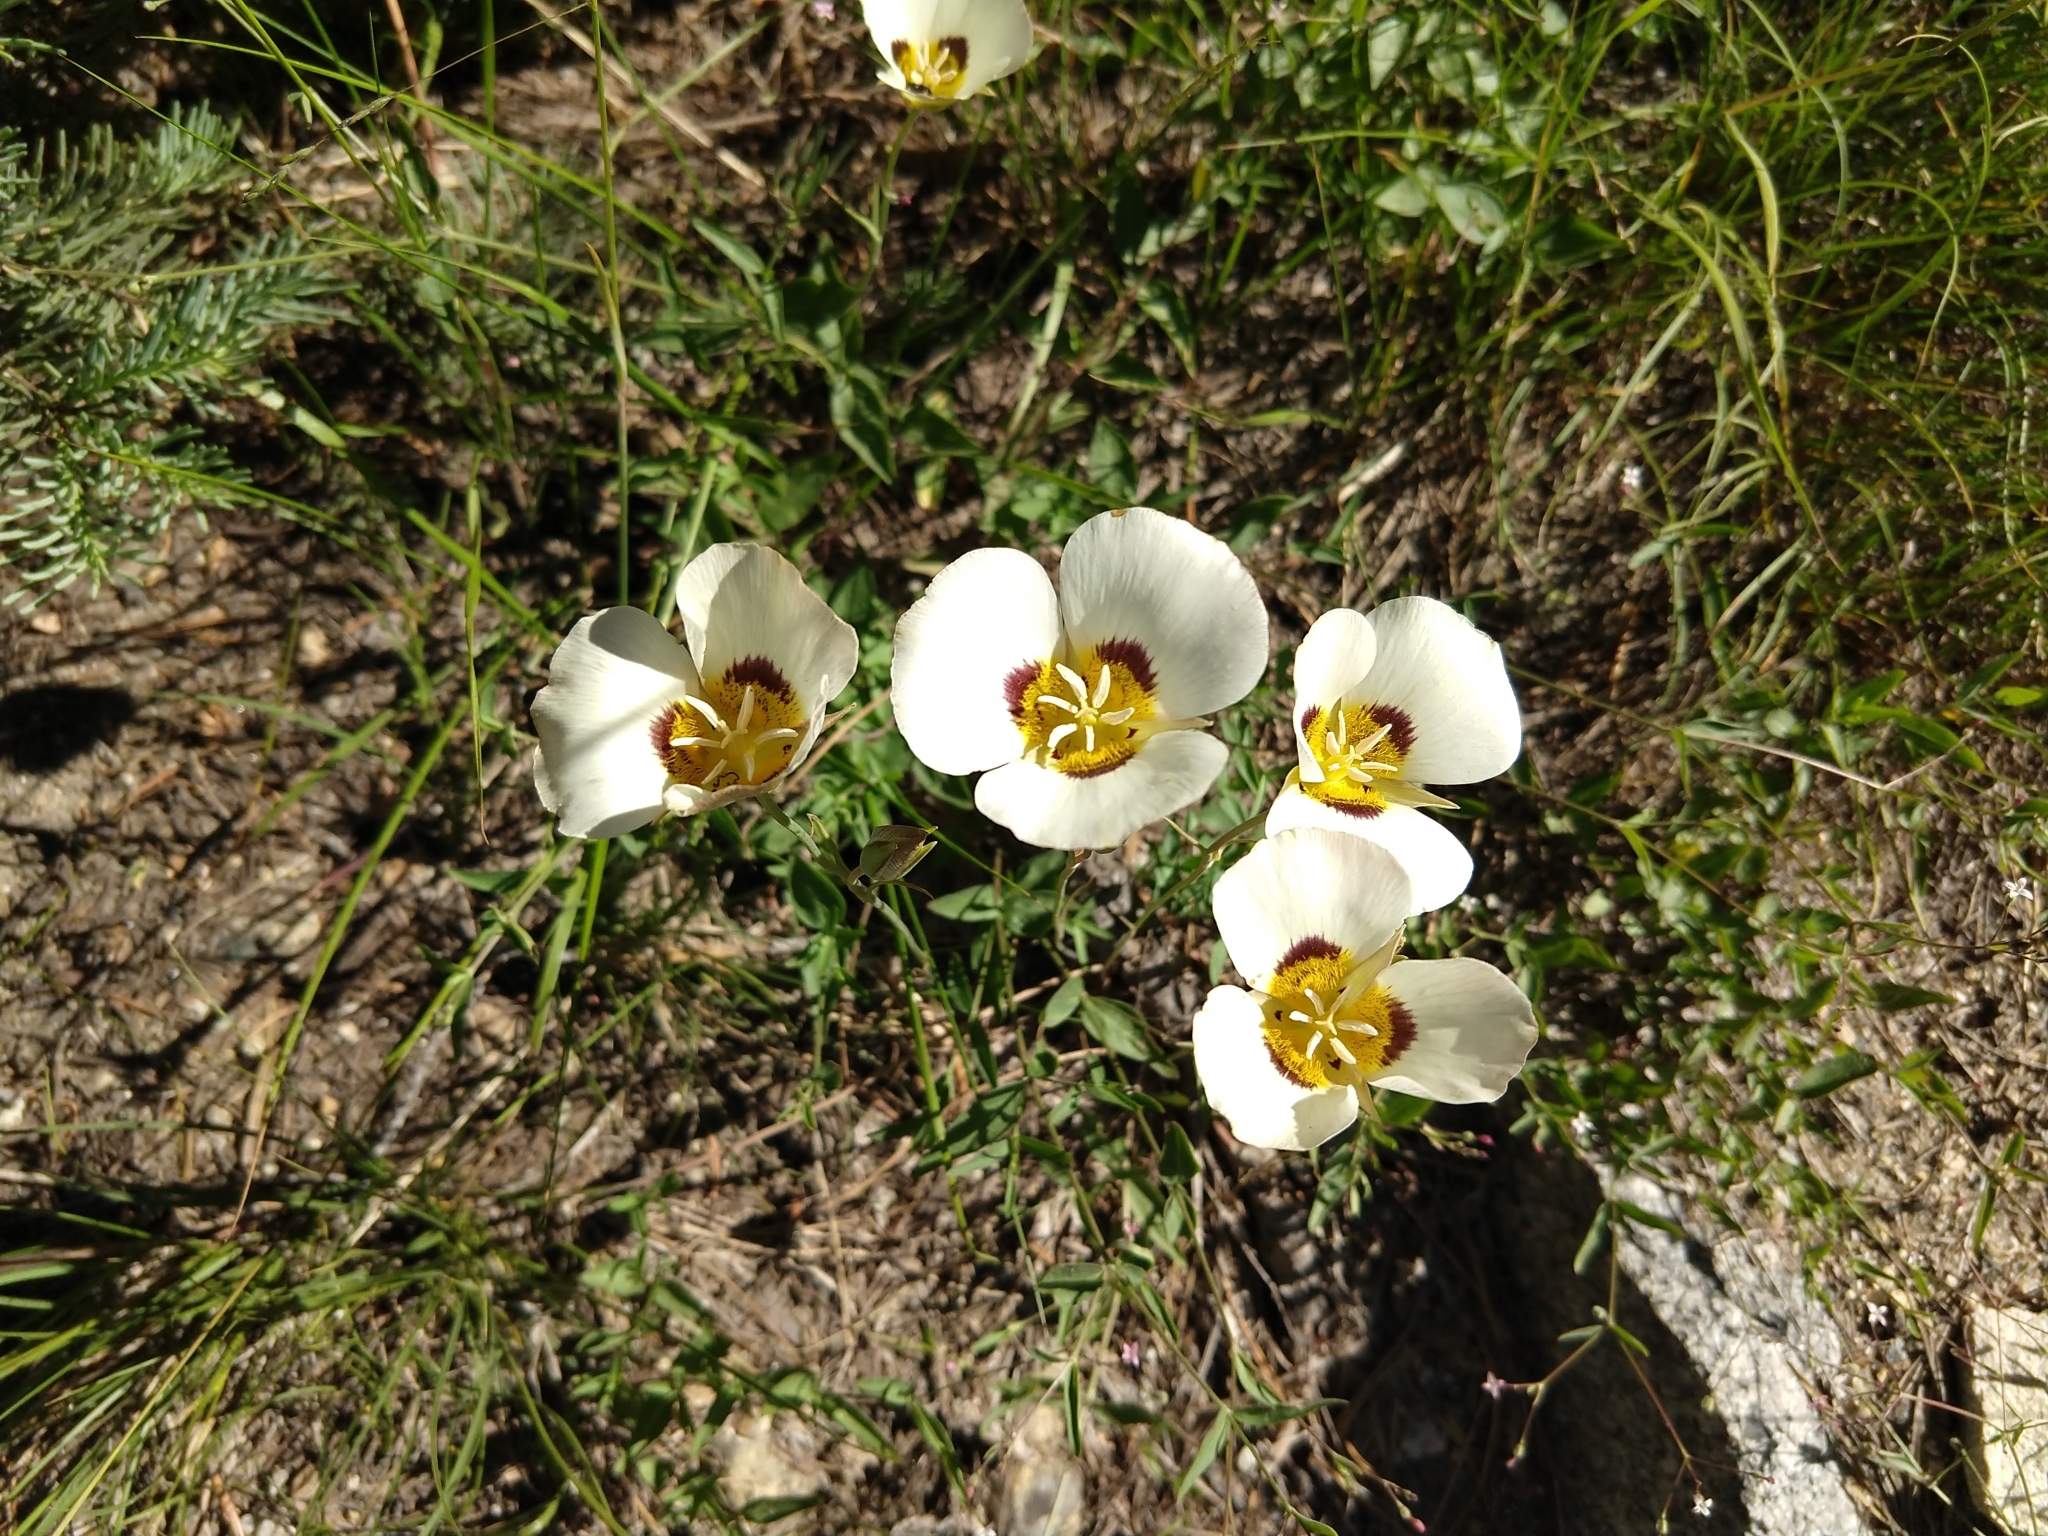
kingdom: Plantae
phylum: Tracheophyta
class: Liliopsida
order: Liliales
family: Liliaceae
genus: Calochortus
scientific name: Calochortus leichtlinii
